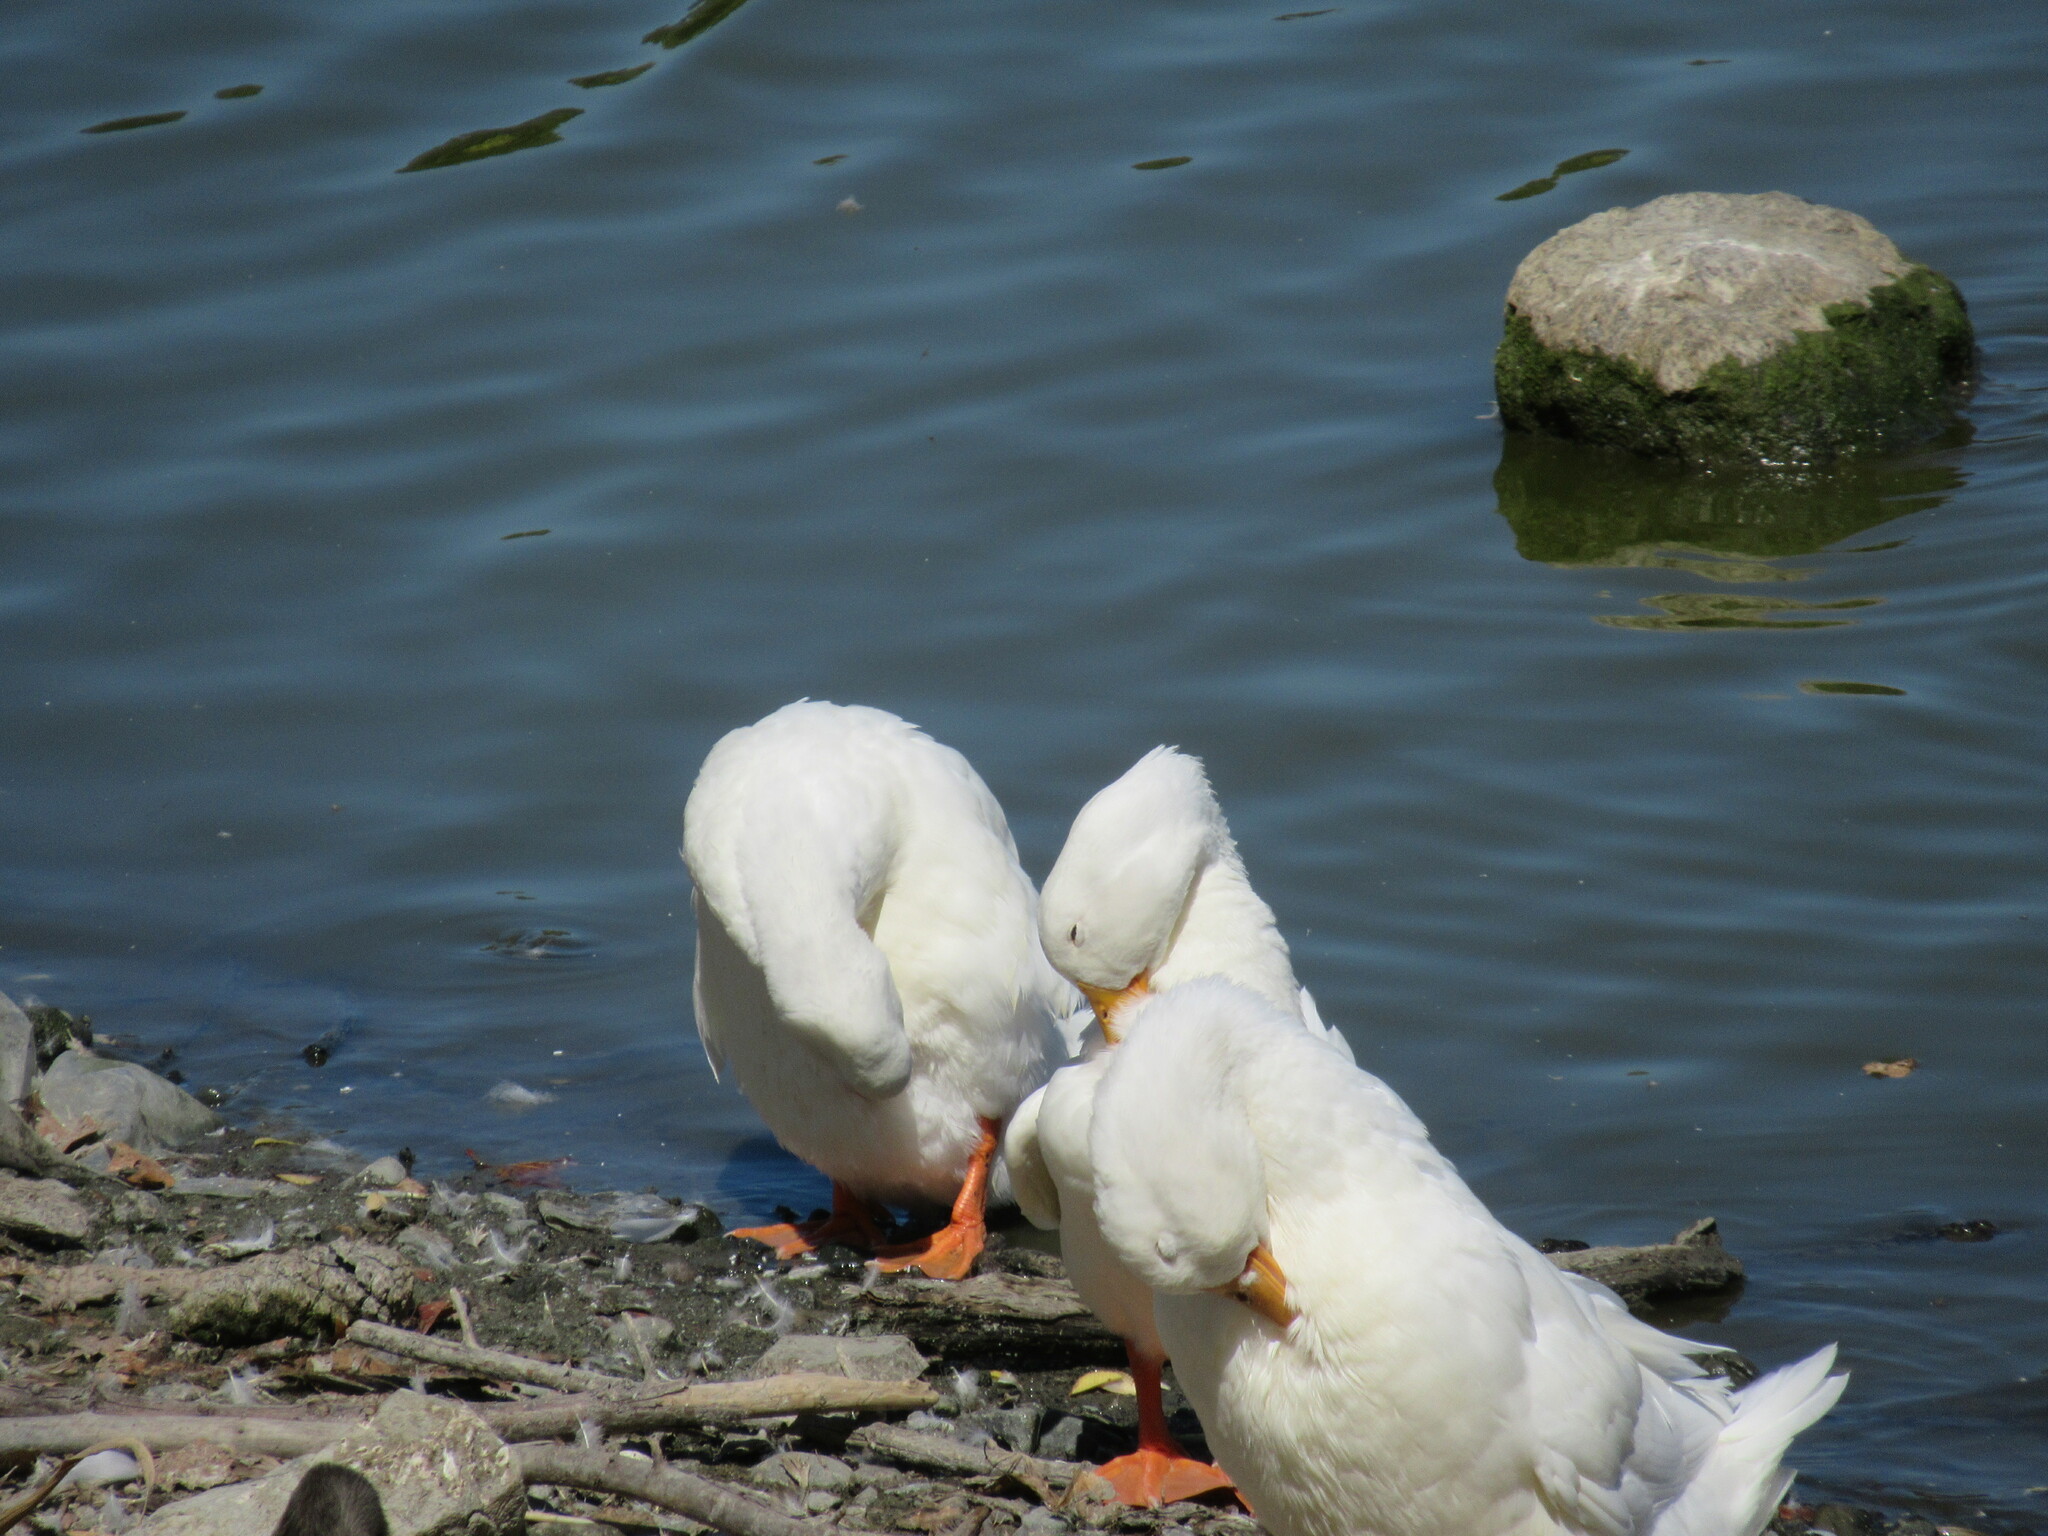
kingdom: Animalia
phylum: Chordata
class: Aves
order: Anseriformes
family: Anatidae
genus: Anas
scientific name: Anas platyrhynchos
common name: Mallard
